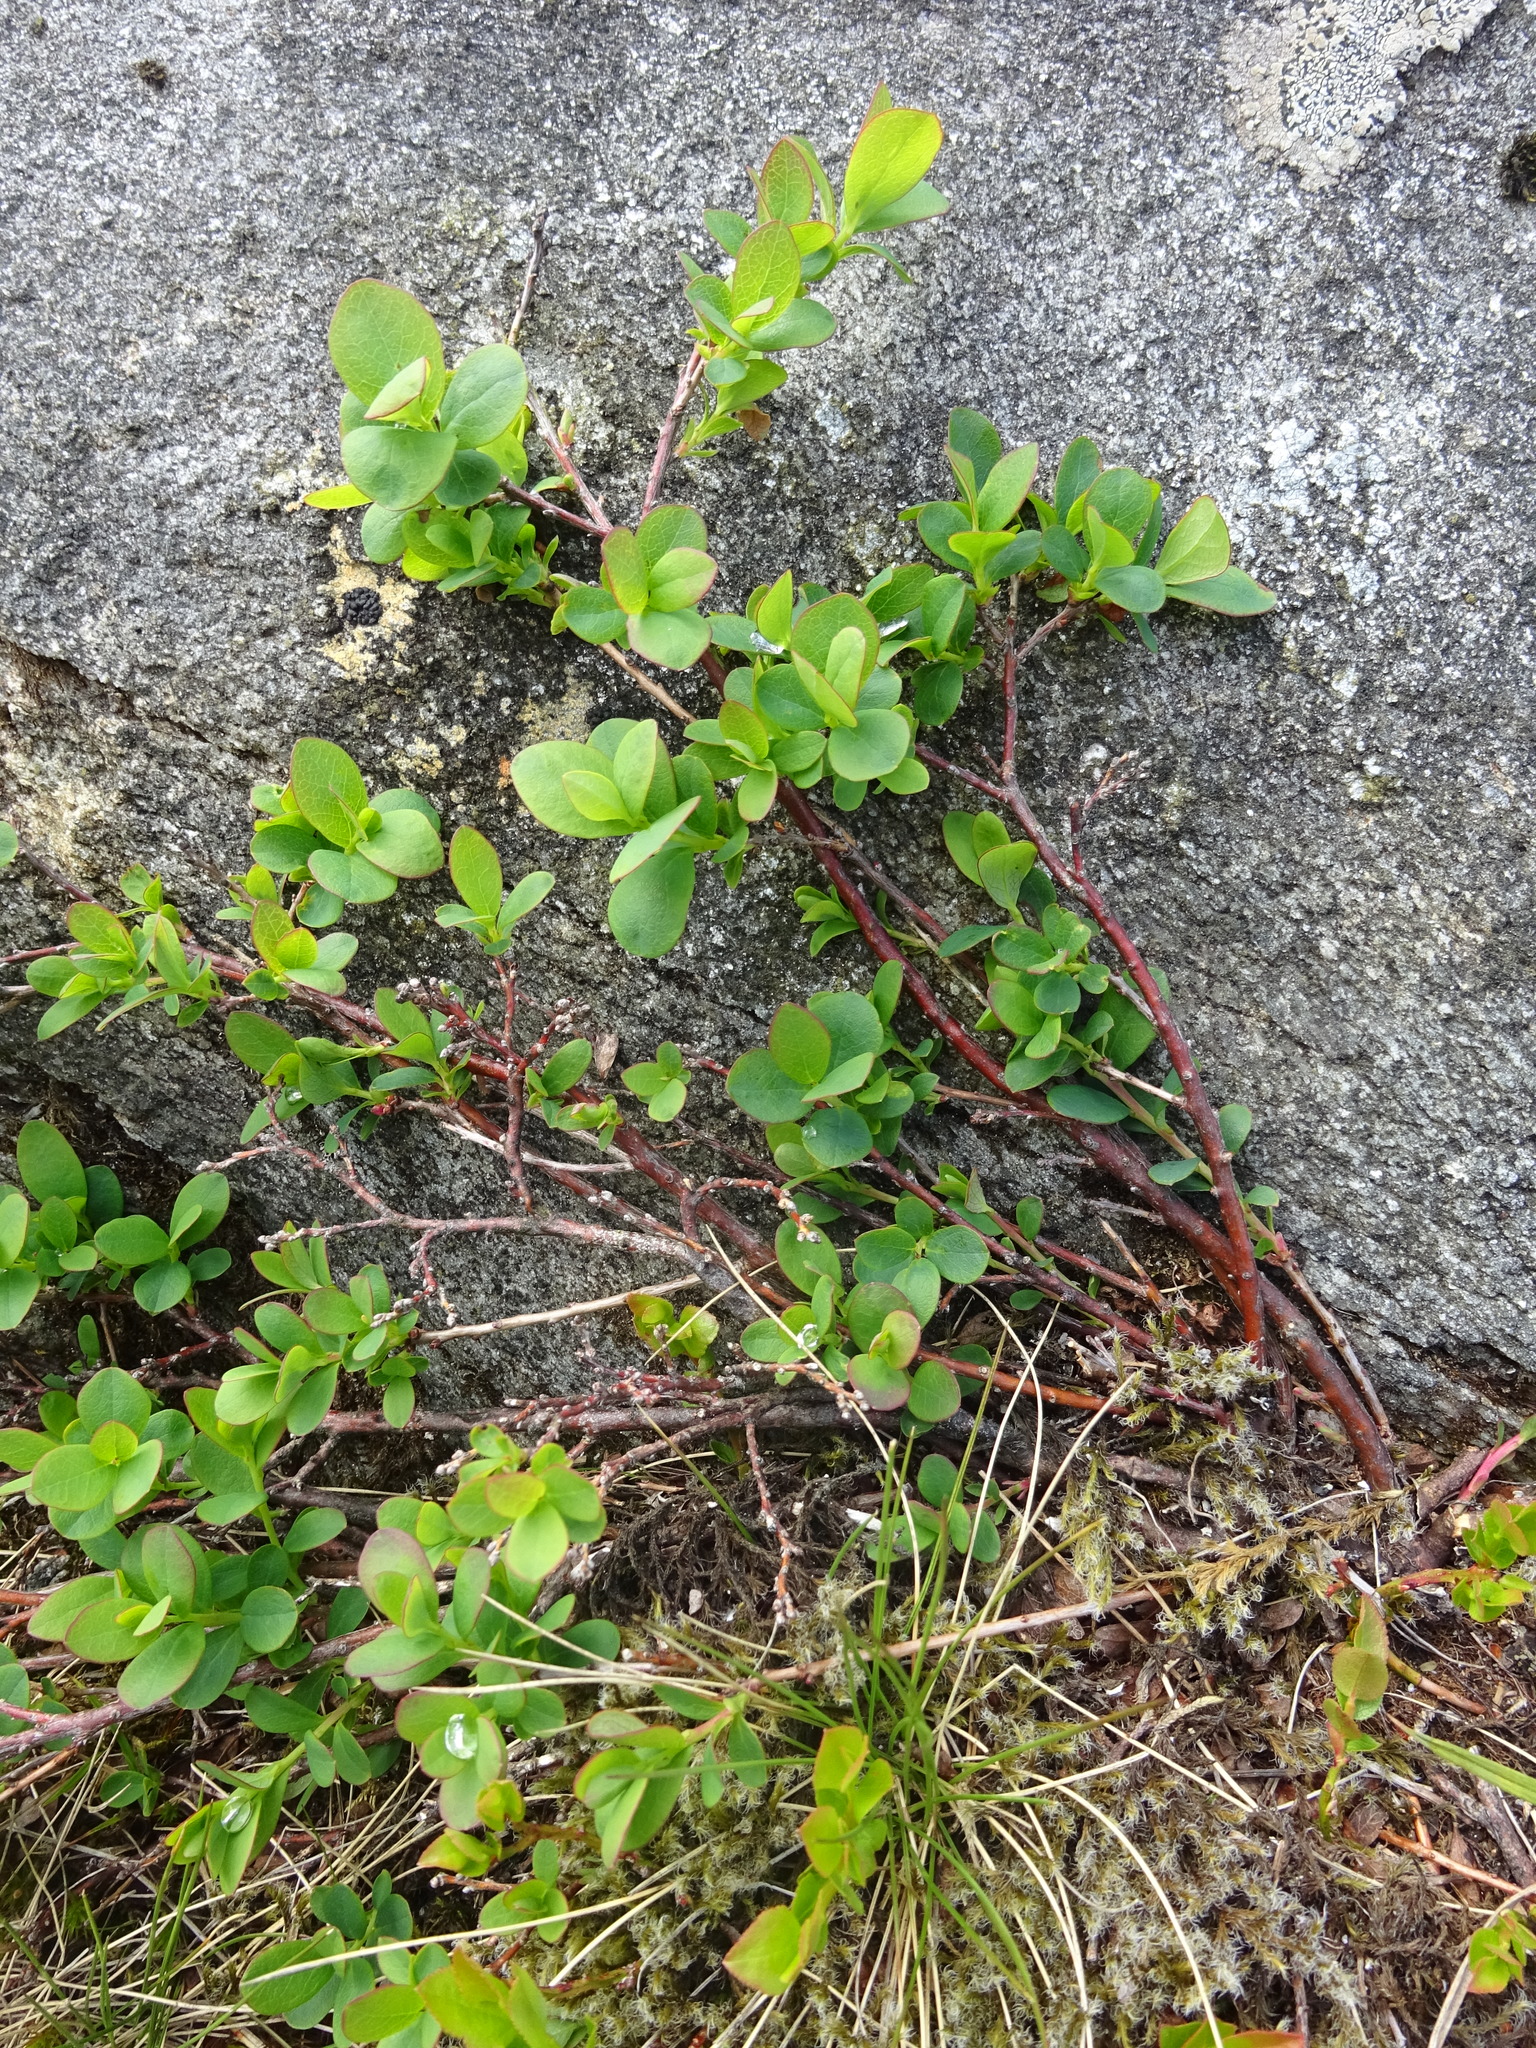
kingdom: Plantae
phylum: Tracheophyta
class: Magnoliopsida
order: Ericales
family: Ericaceae
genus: Vaccinium
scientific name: Vaccinium uliginosum
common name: Bog bilberry
